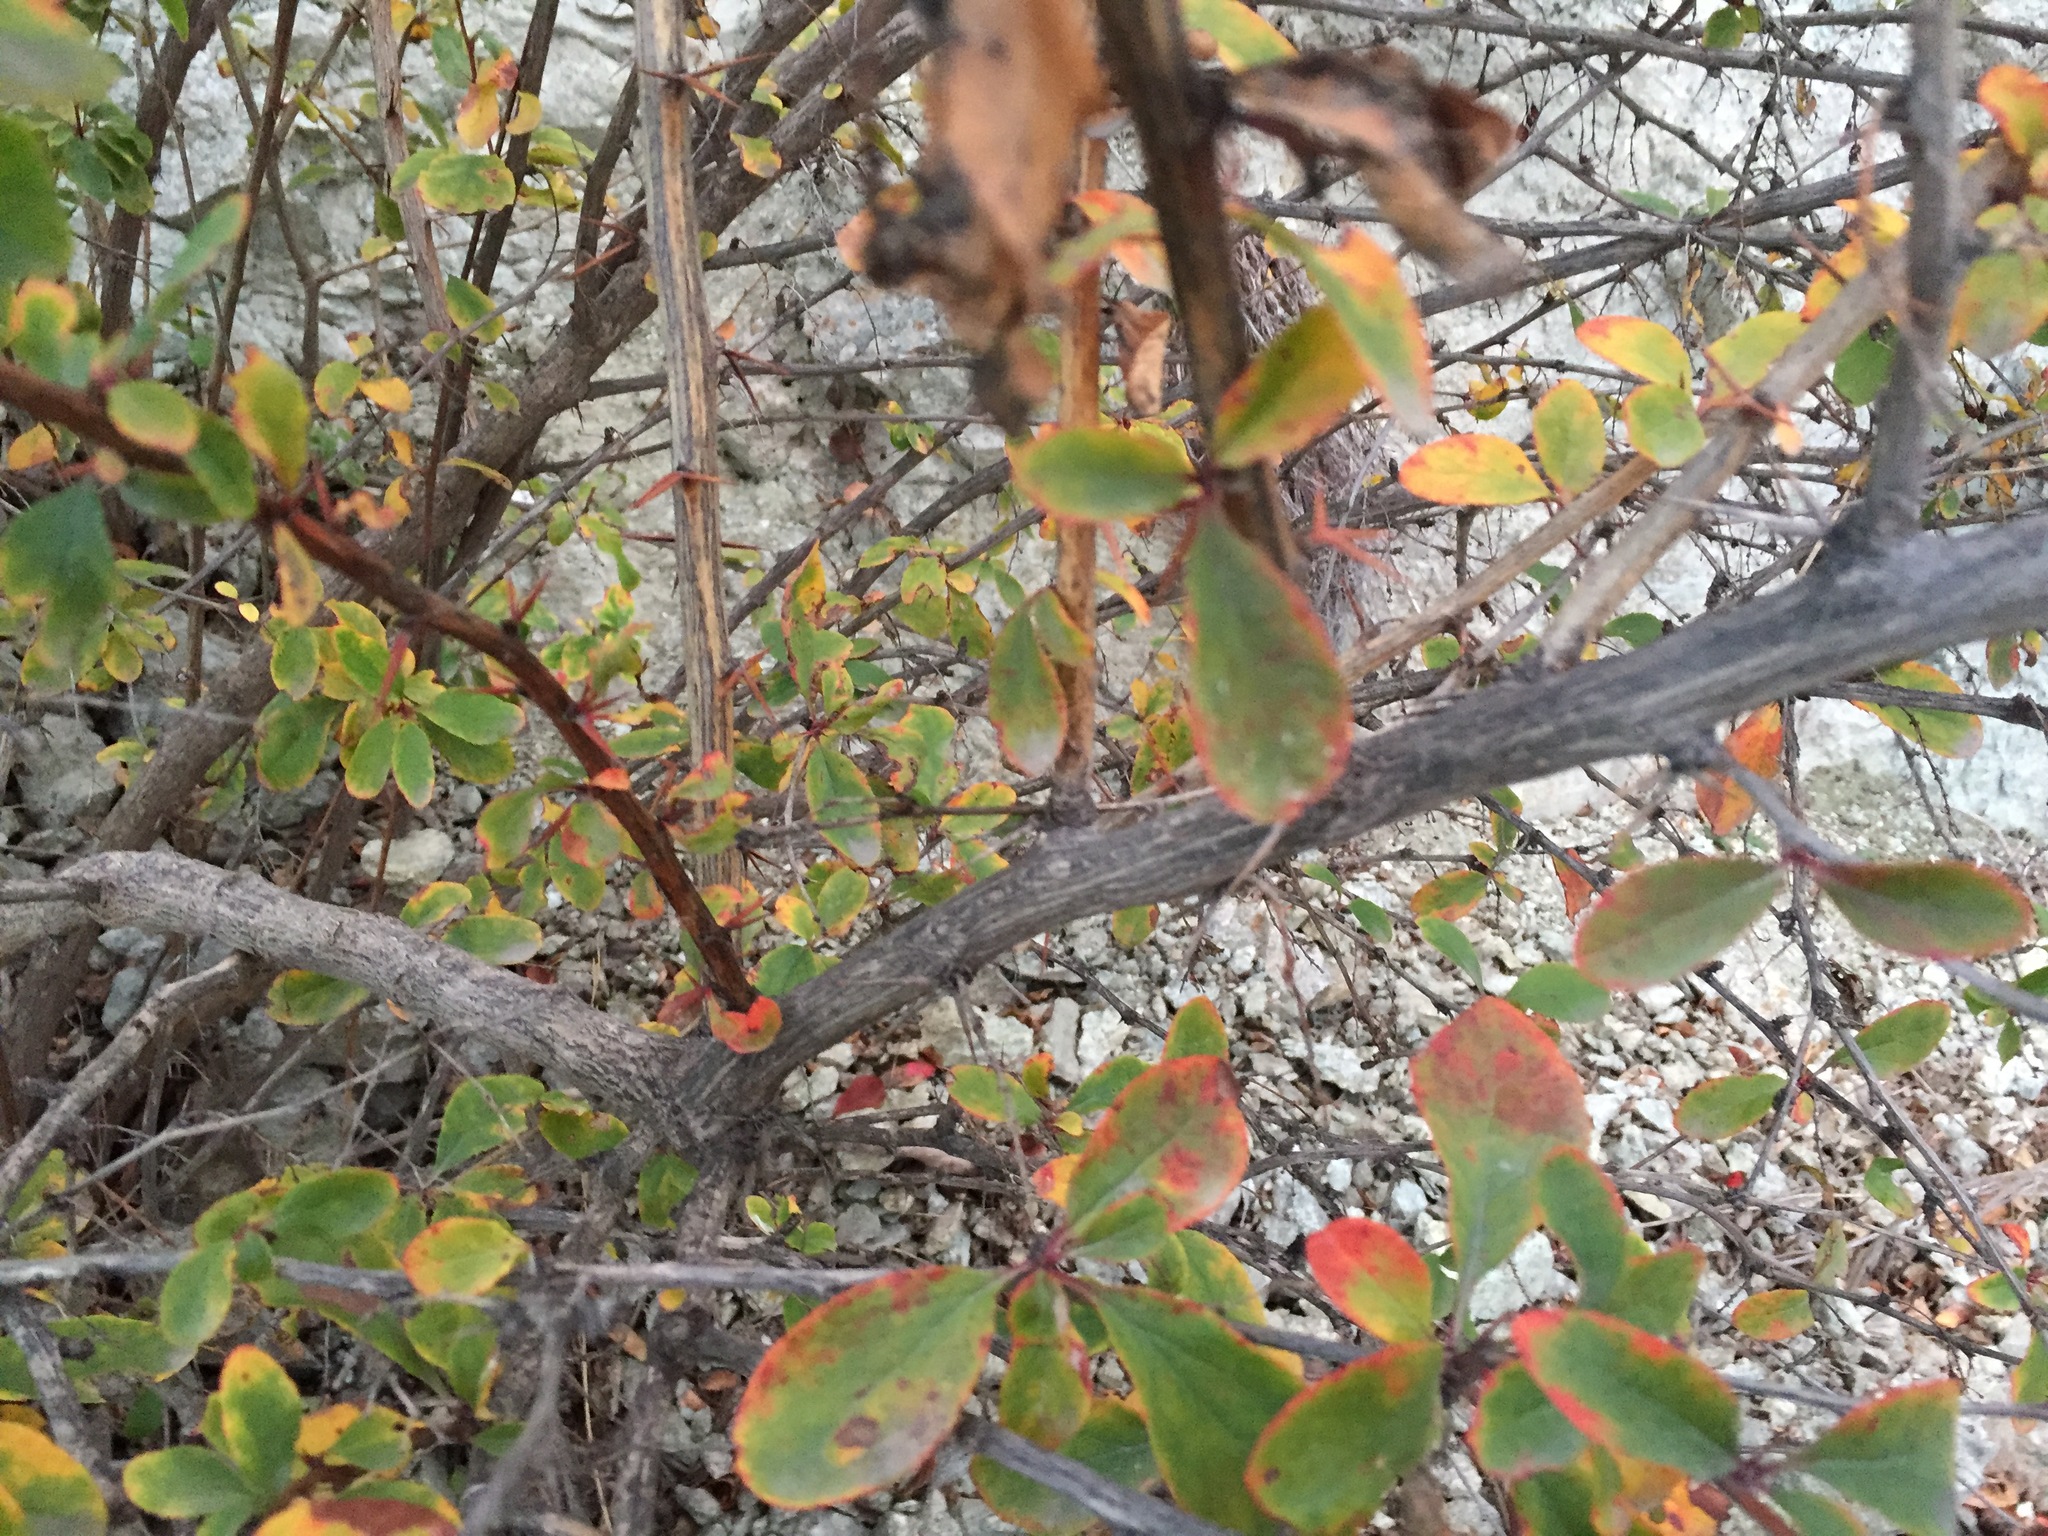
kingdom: Plantae
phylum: Tracheophyta
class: Magnoliopsida
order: Ranunculales
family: Berberidaceae
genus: Berberis
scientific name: Berberis vulgaris
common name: Barberry
